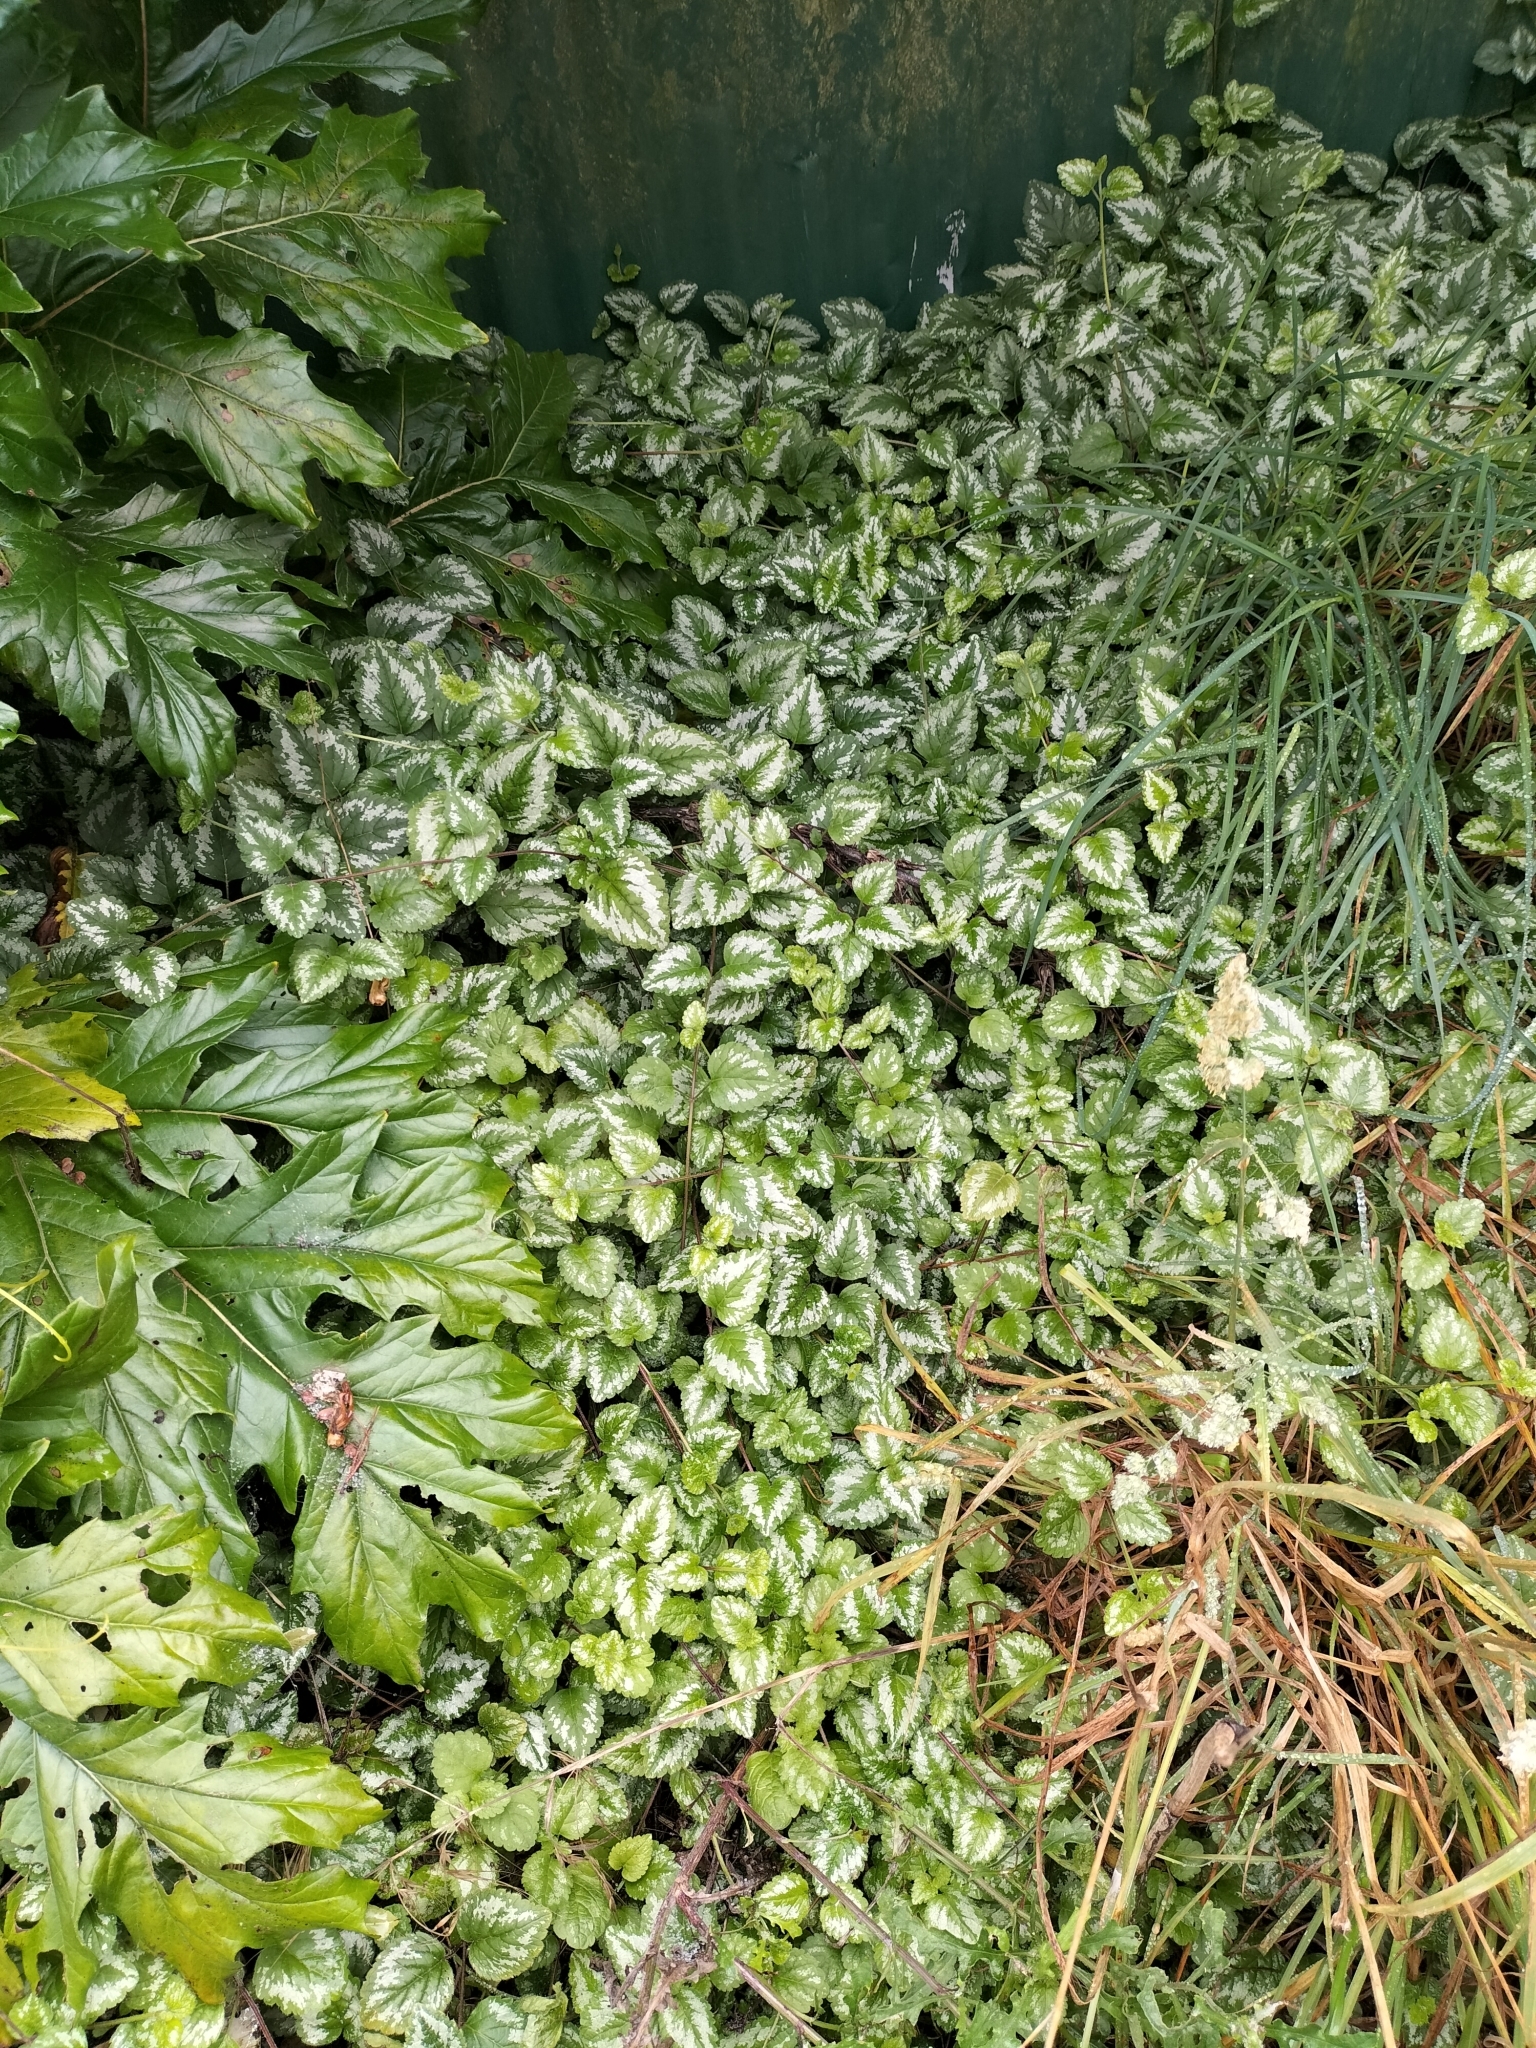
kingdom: Plantae
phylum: Tracheophyta
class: Magnoliopsida
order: Lamiales
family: Lamiaceae
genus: Lamium
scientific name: Lamium galeobdolon
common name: Yellow archangel
